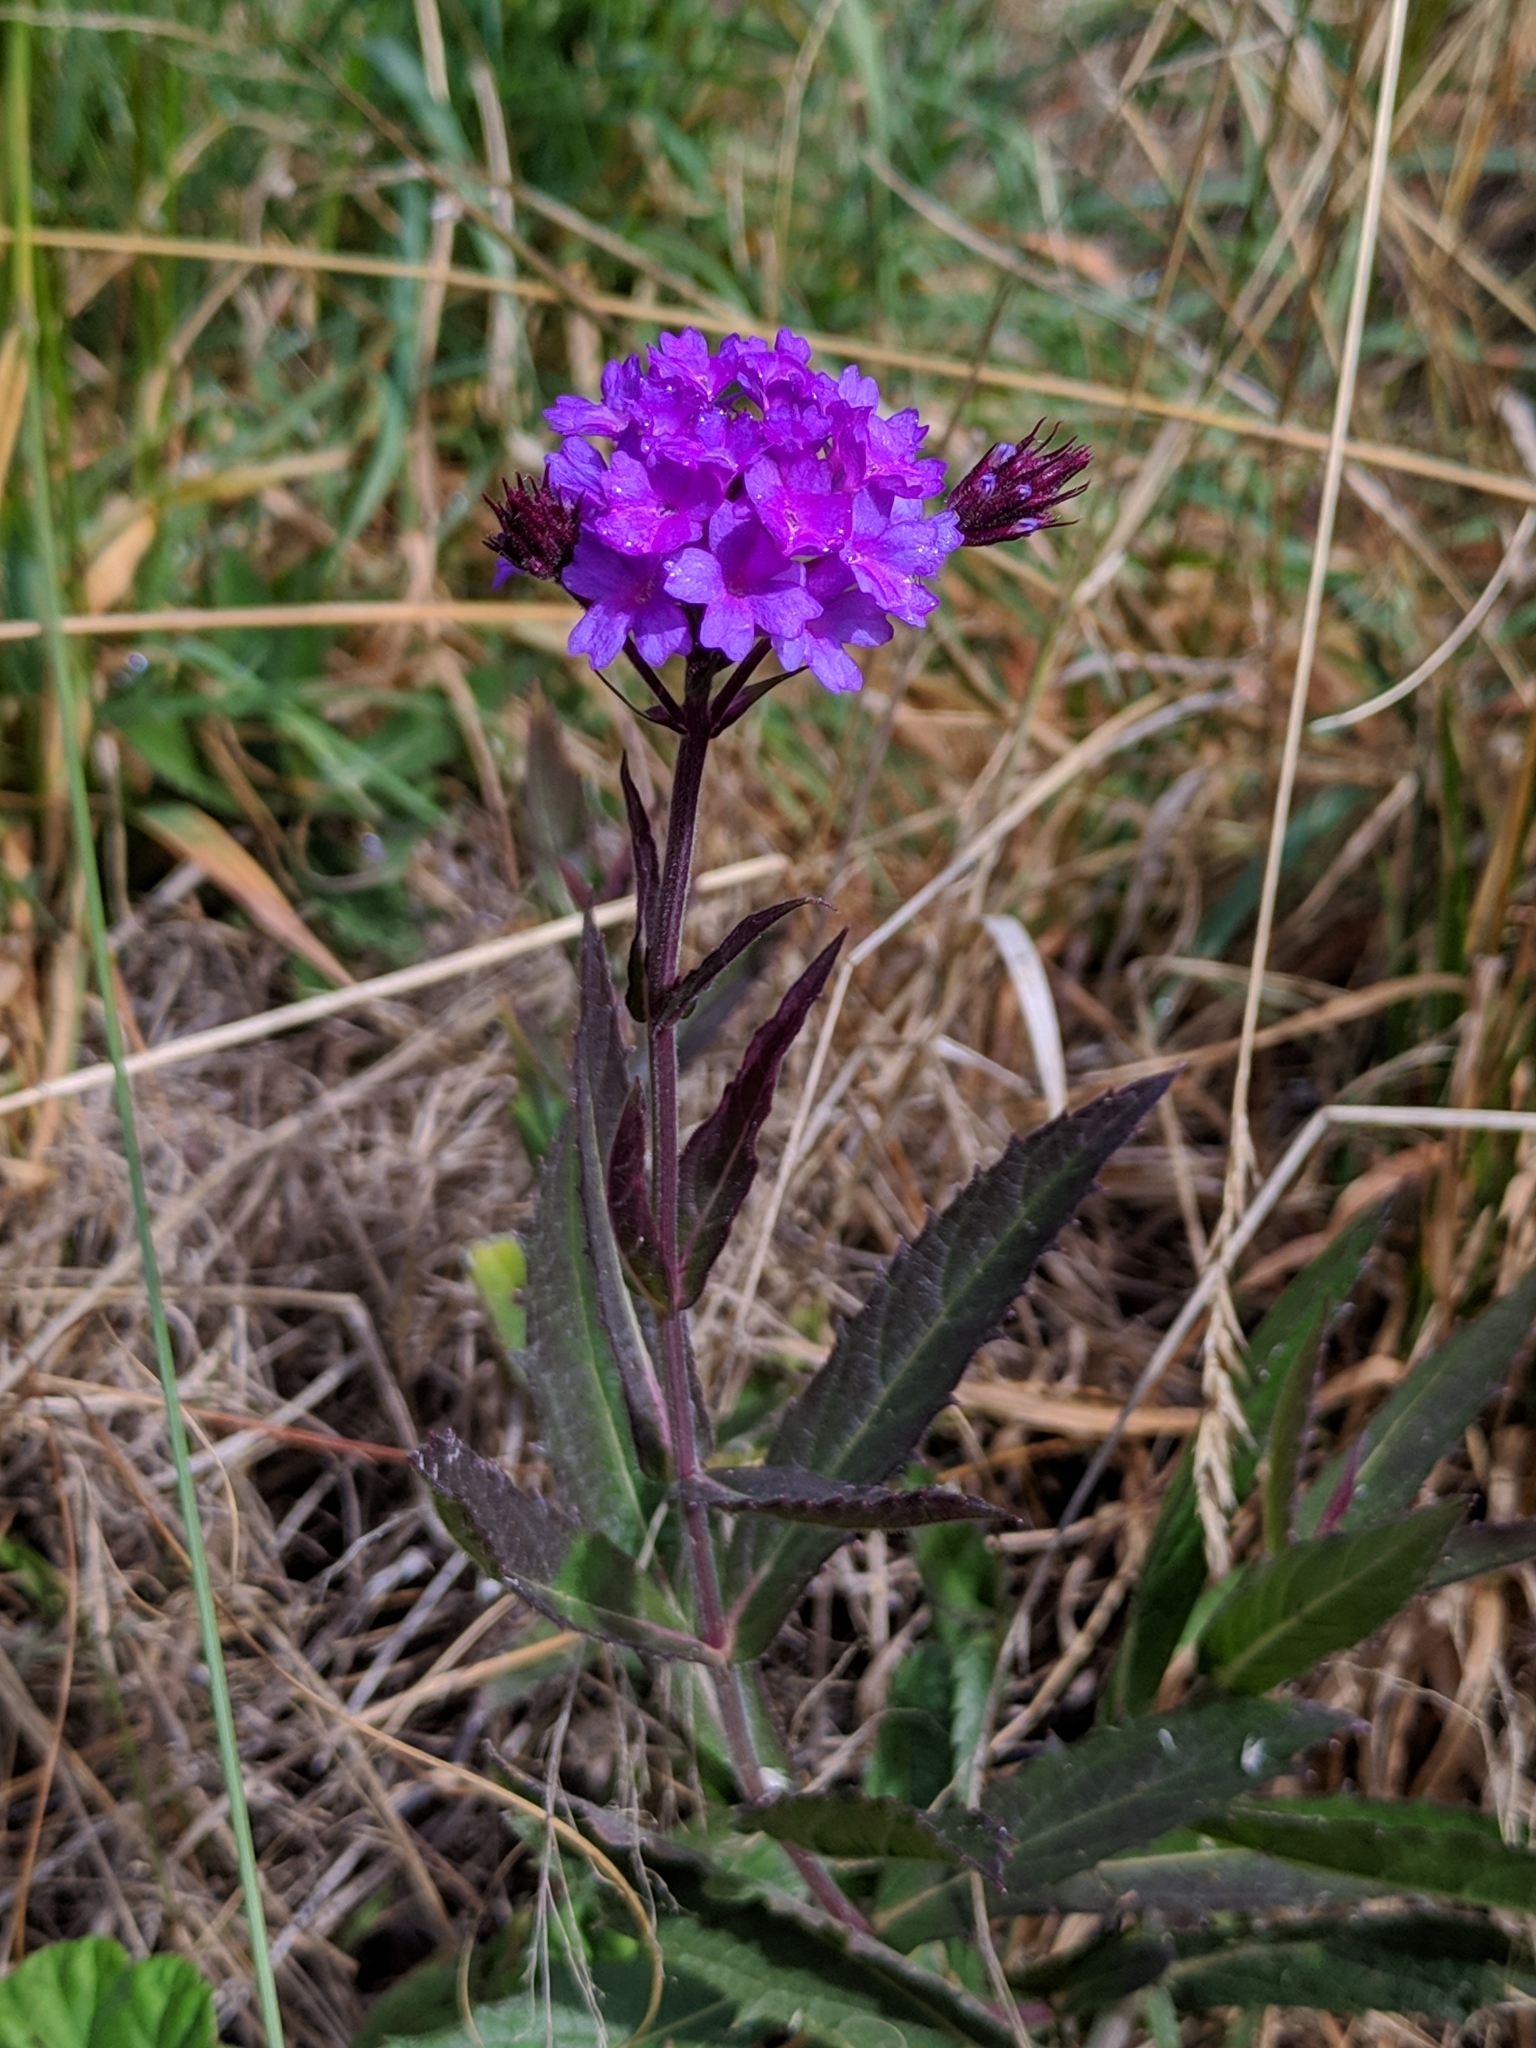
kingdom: Plantae
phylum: Tracheophyta
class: Magnoliopsida
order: Lamiales
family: Verbenaceae
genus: Verbena
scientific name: Verbena rigida
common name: Slender vervain
